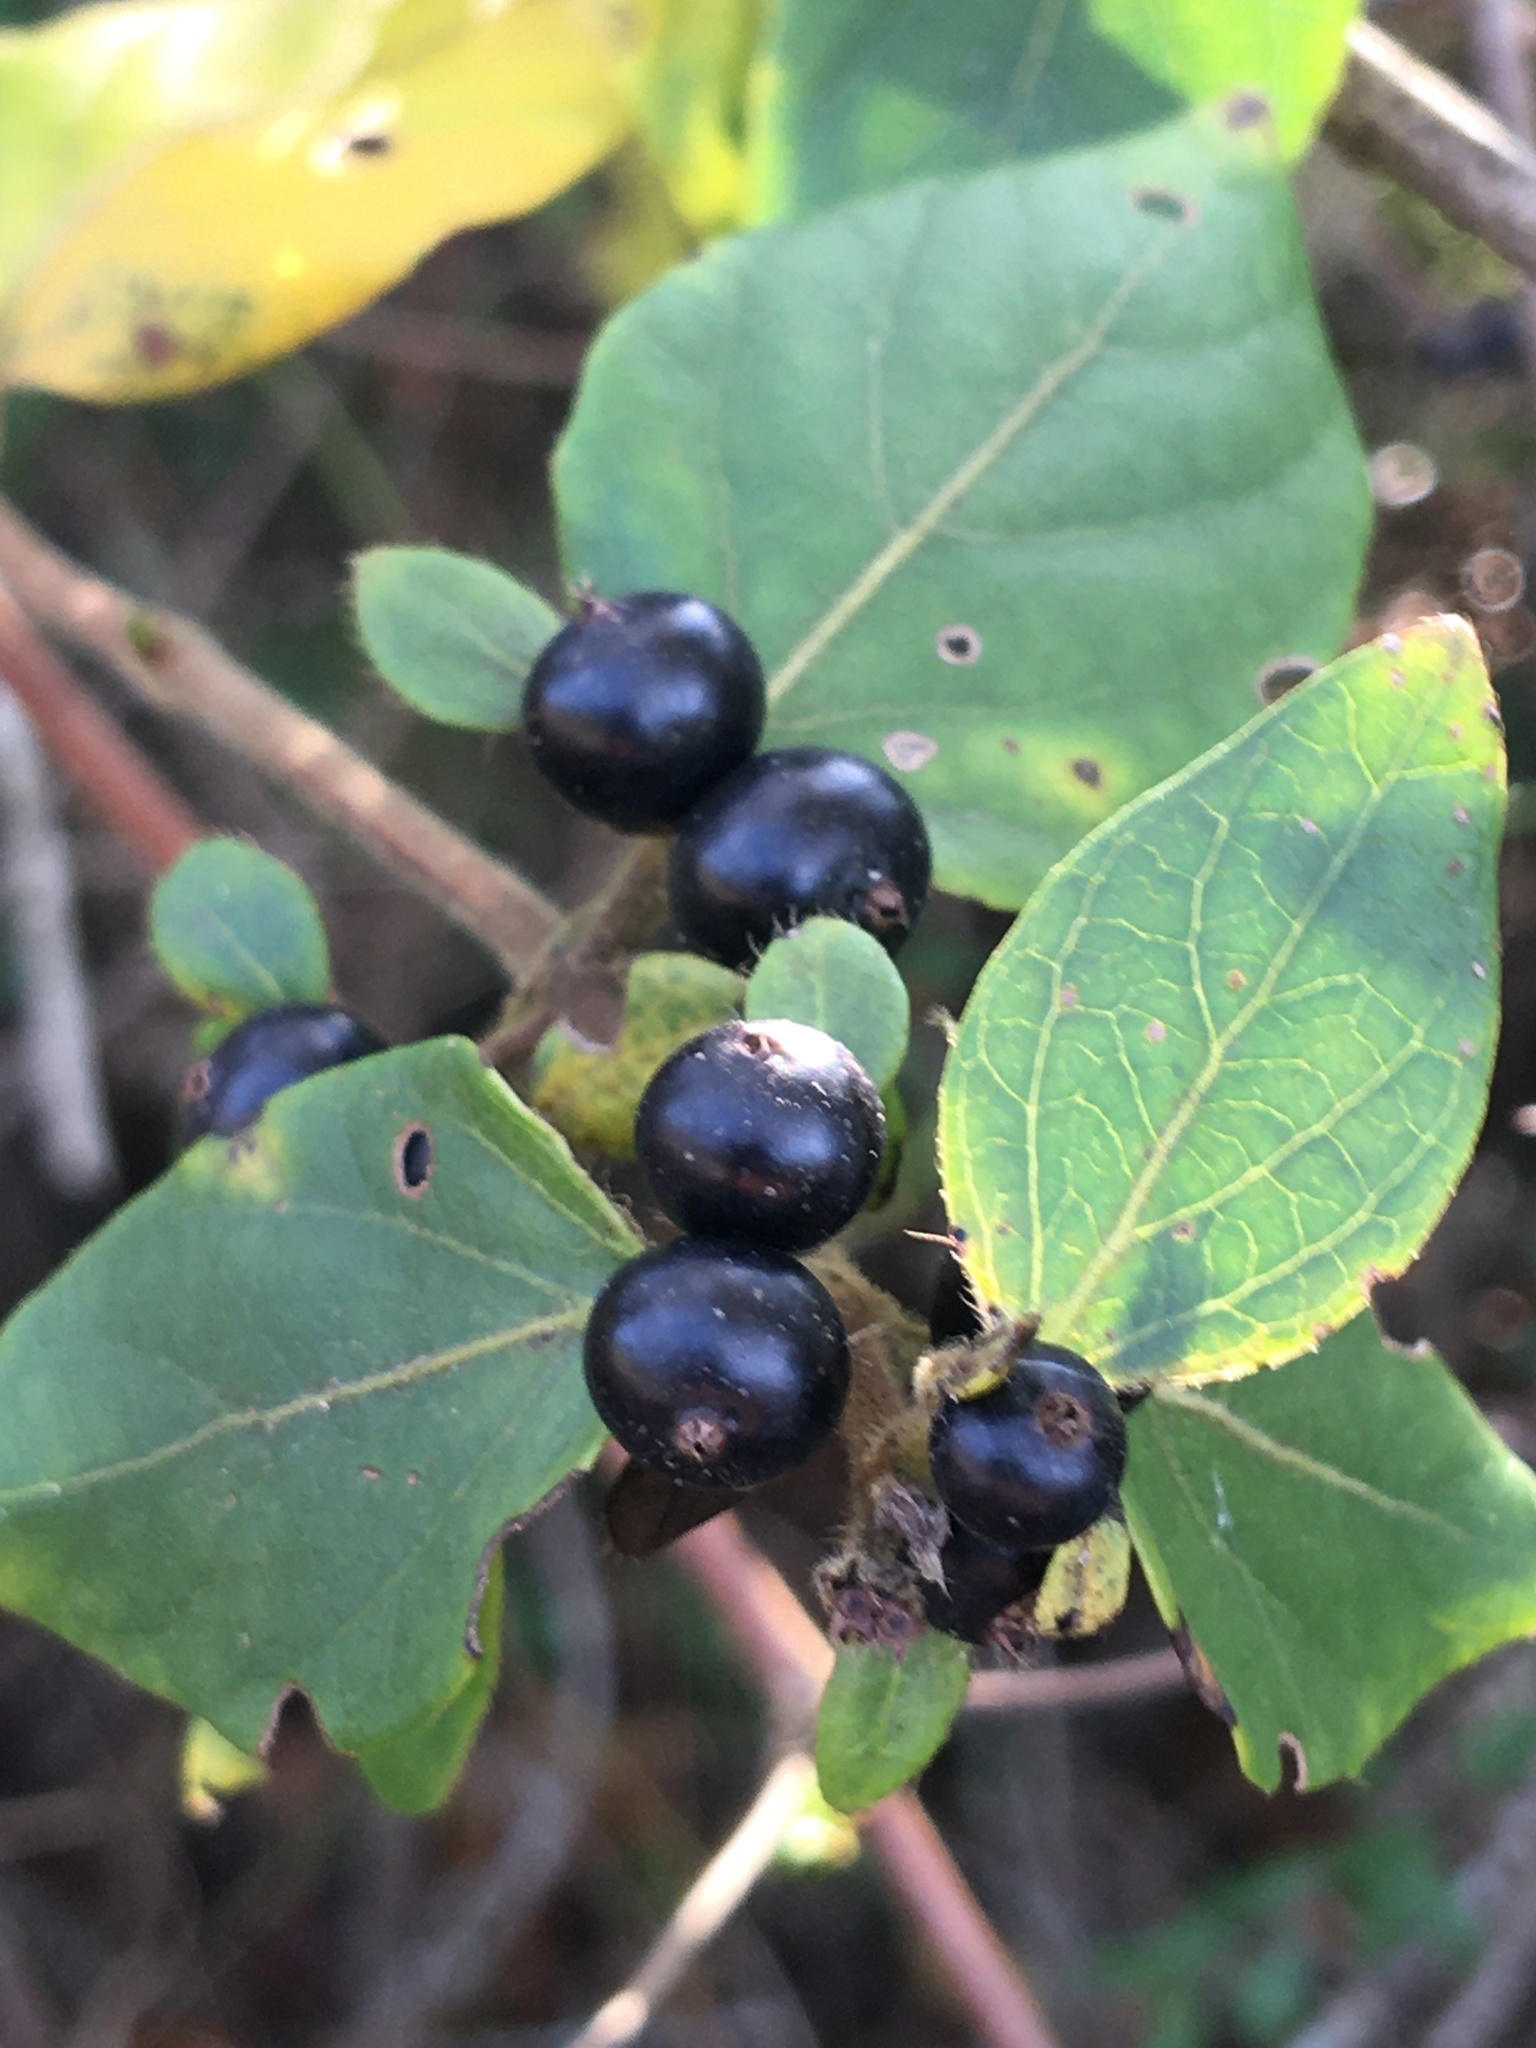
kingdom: Plantae
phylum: Tracheophyta
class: Magnoliopsida
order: Dipsacales
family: Caprifoliaceae
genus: Lonicera
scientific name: Lonicera japonica
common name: Japanese honeysuckle
